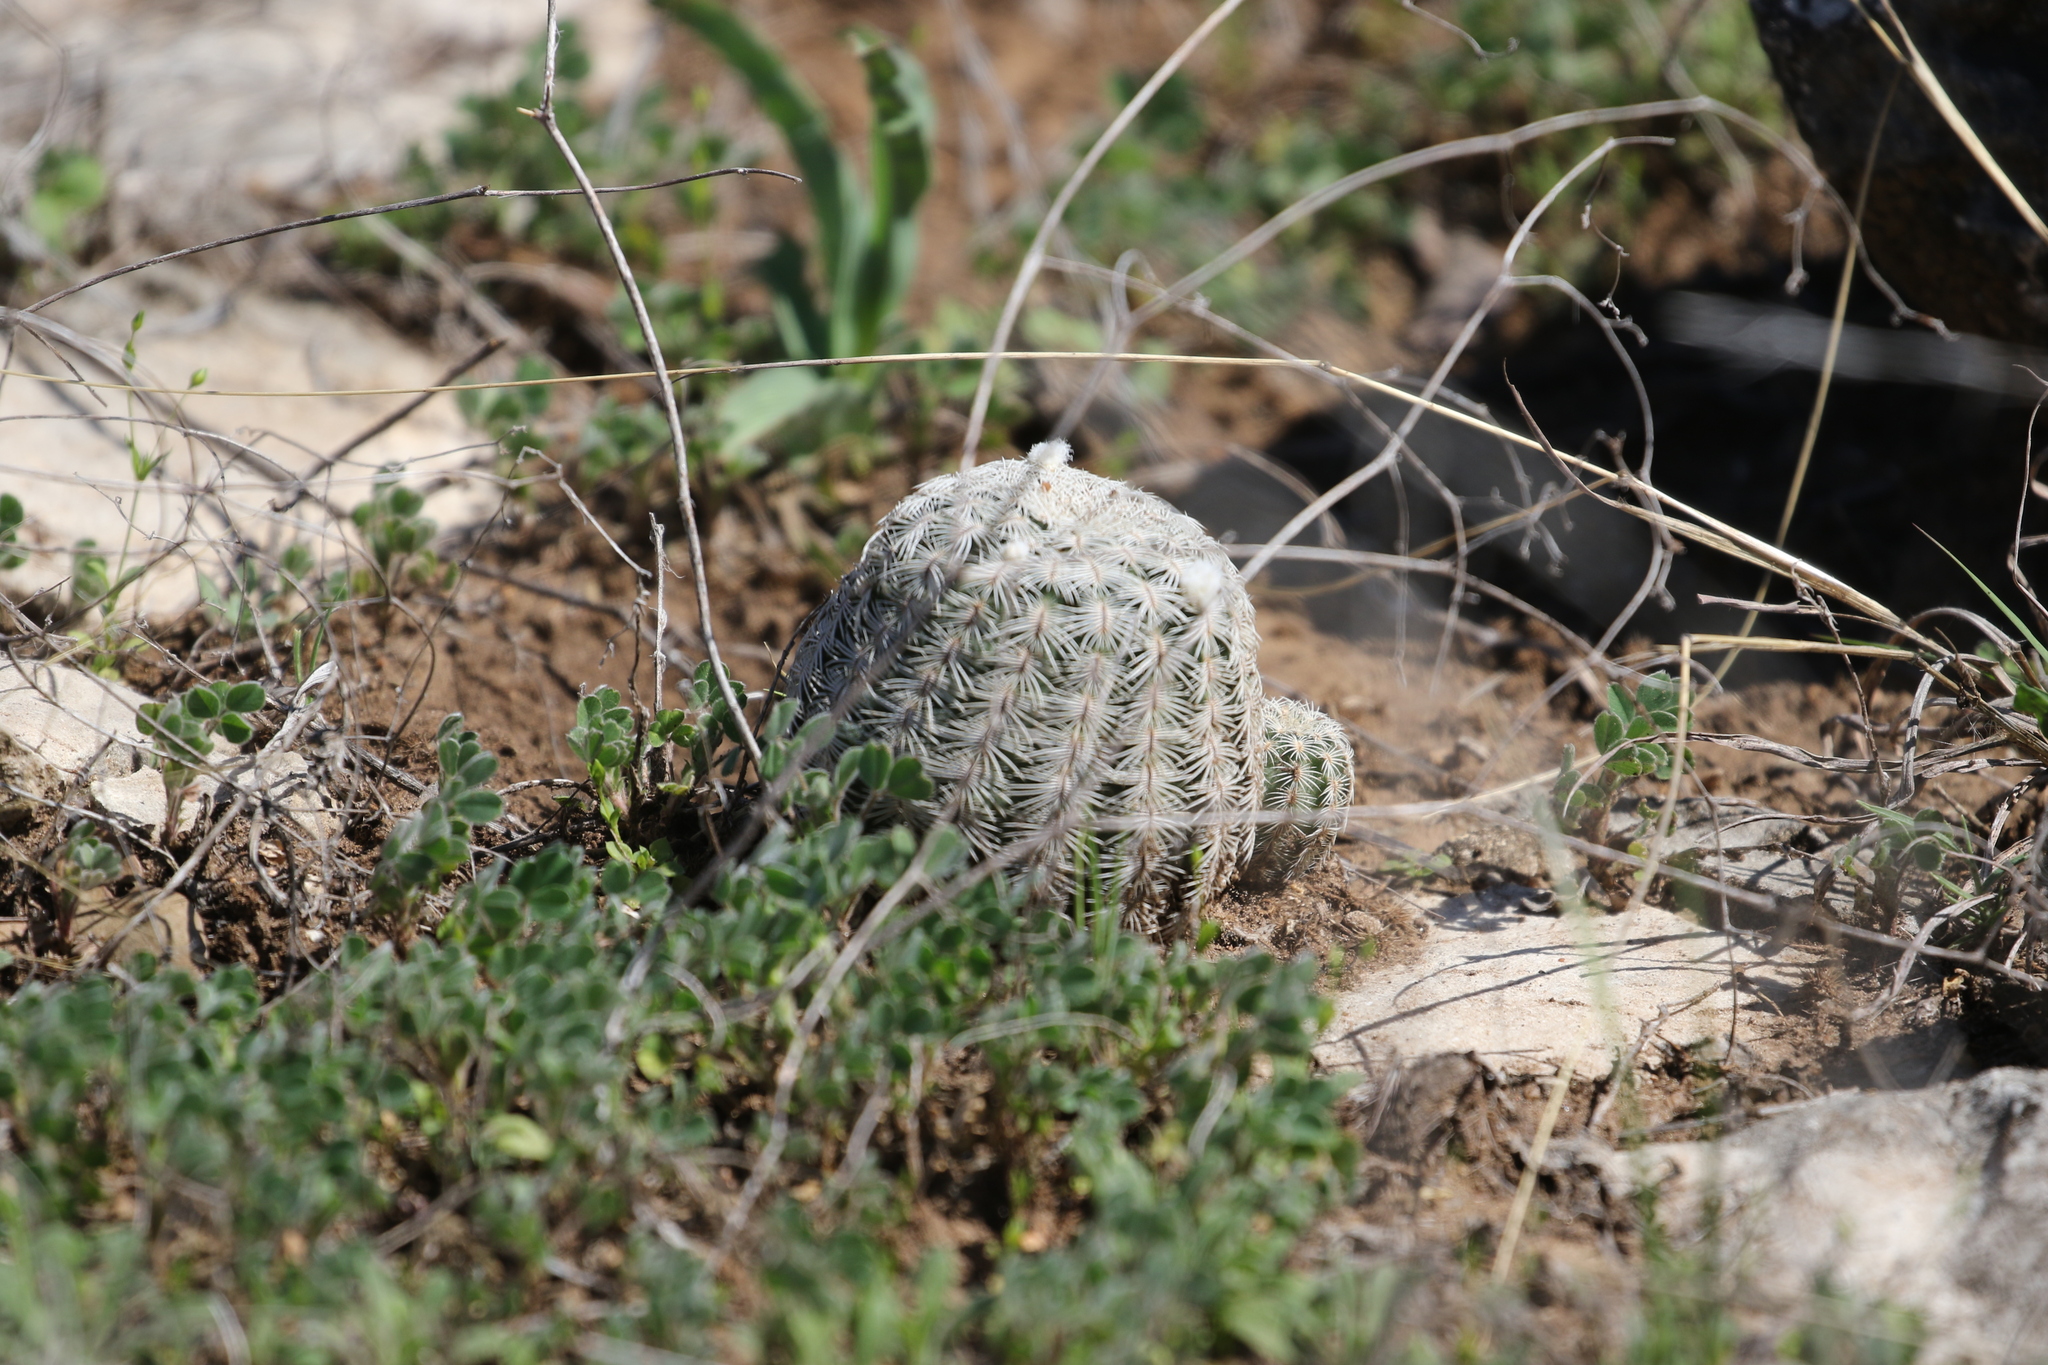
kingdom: Plantae
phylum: Tracheophyta
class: Magnoliopsida
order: Caryophyllales
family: Cactaceae
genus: Echinocereus
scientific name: Echinocereus reichenbachii
